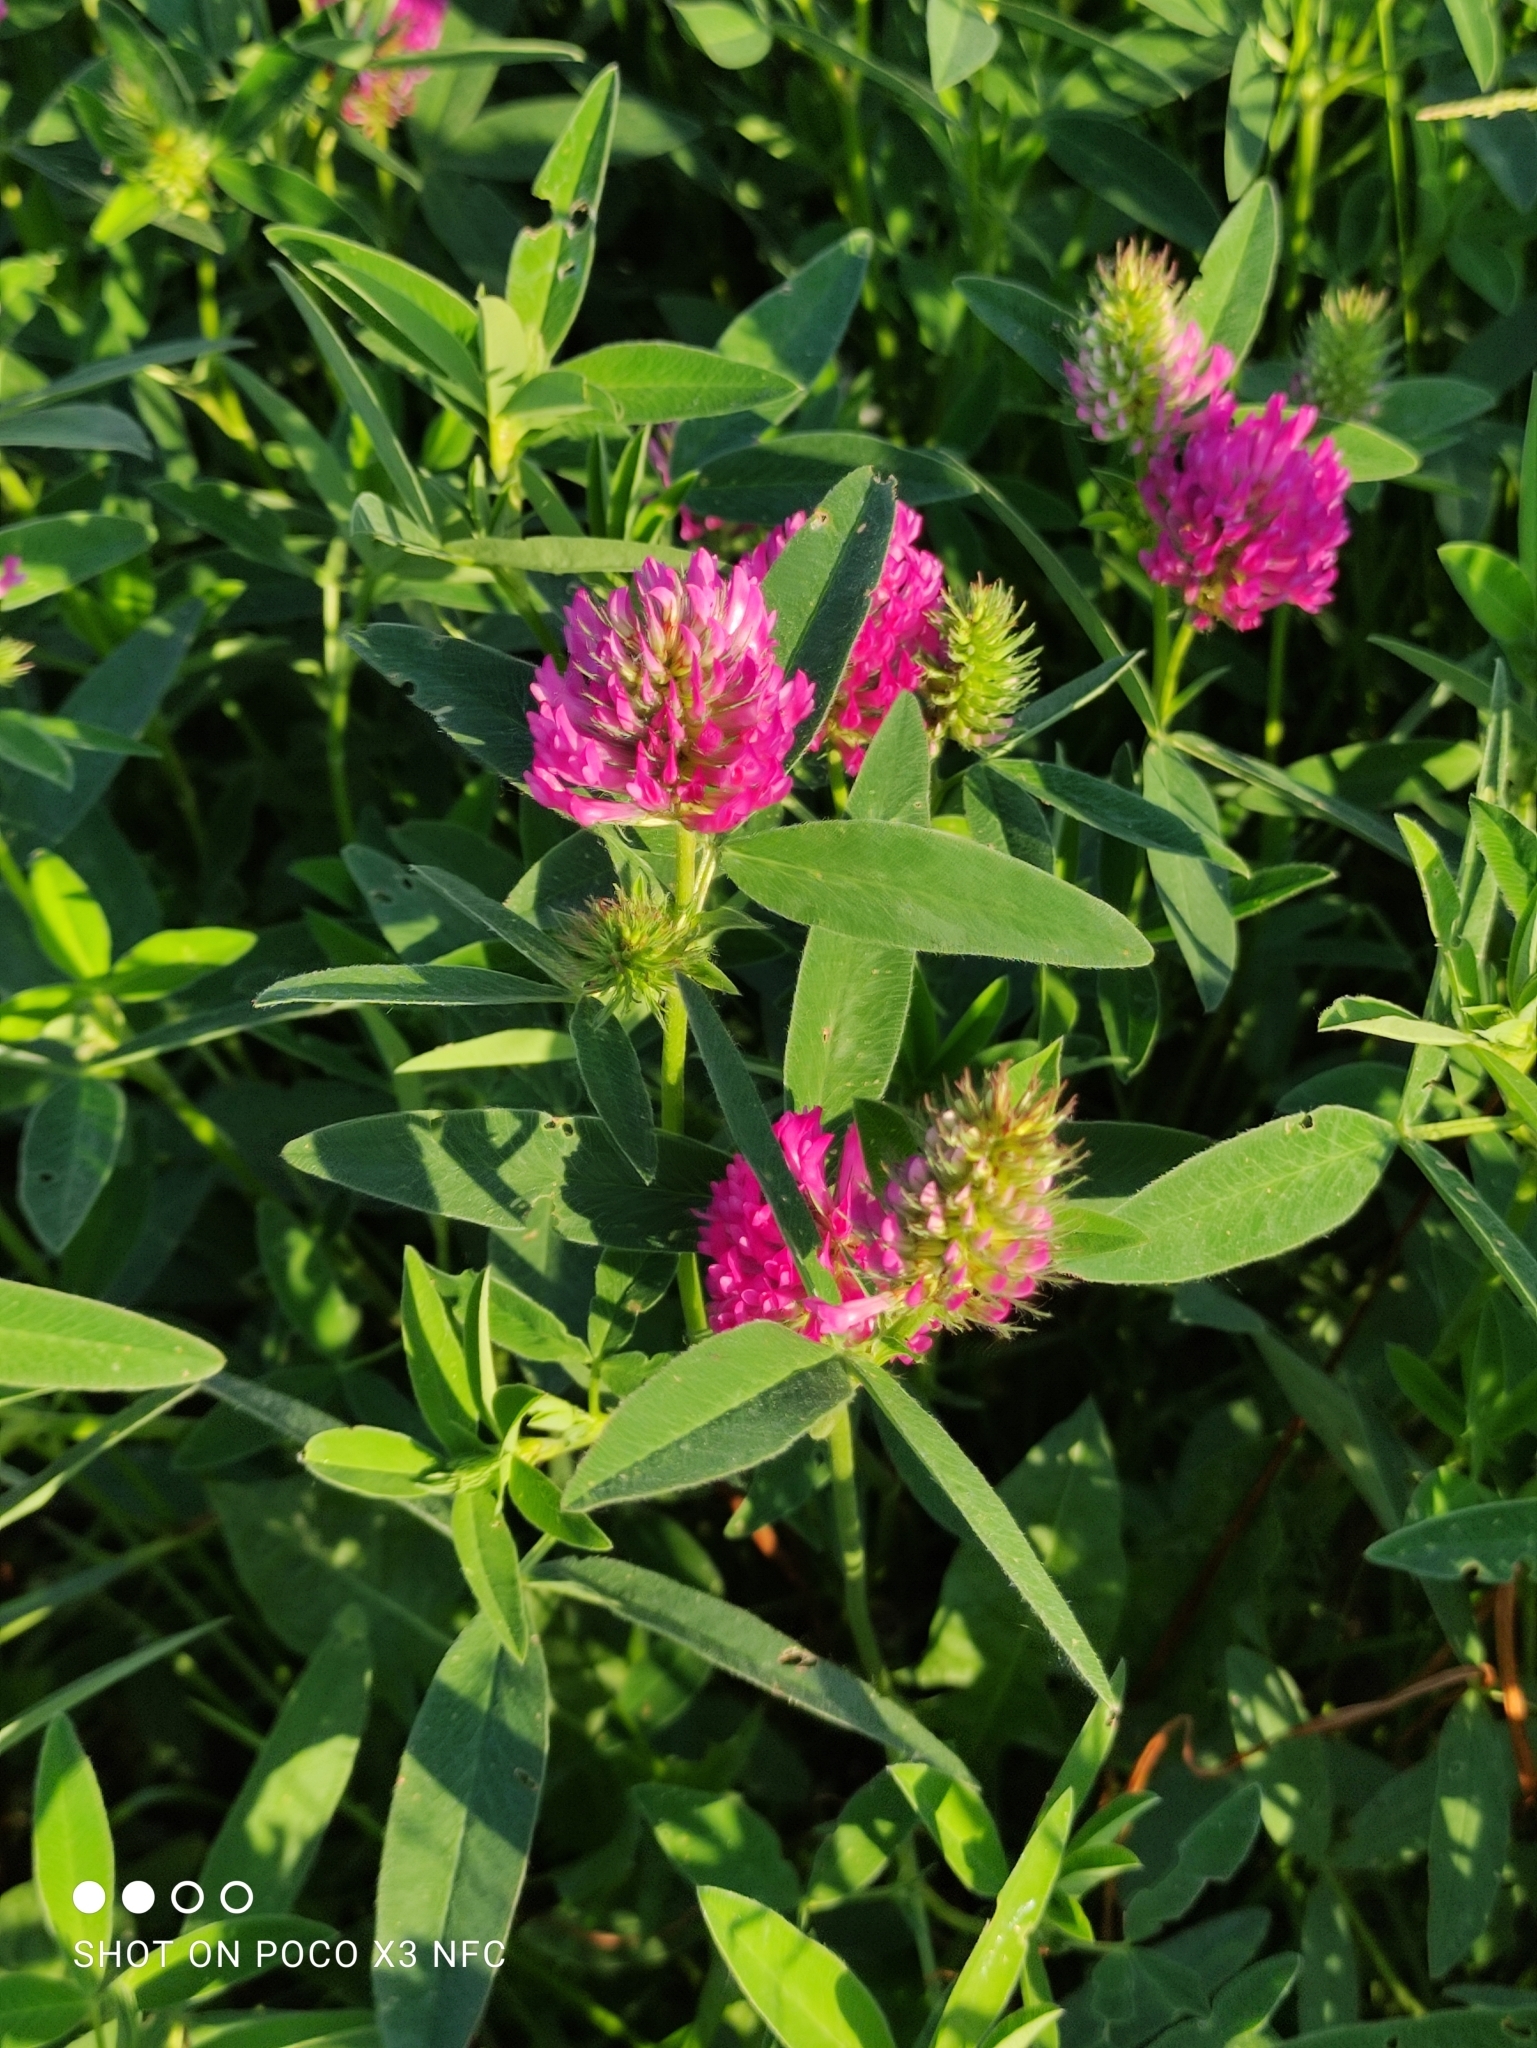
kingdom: Plantae
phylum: Tracheophyta
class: Magnoliopsida
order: Fabales
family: Fabaceae
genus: Trifolium
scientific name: Trifolium medium
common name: Zigzag clover
